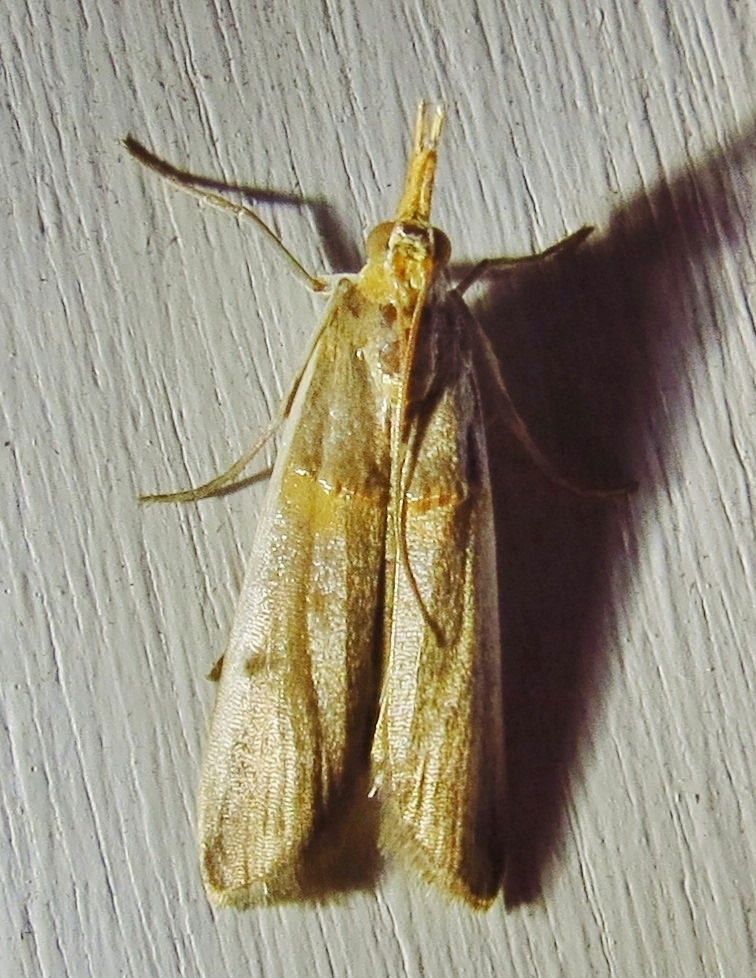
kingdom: Animalia
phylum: Arthropoda
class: Insecta
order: Lepidoptera
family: Pyralidae
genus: Etiella
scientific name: Etiella zinckenella
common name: Gold-banded etiella moth
